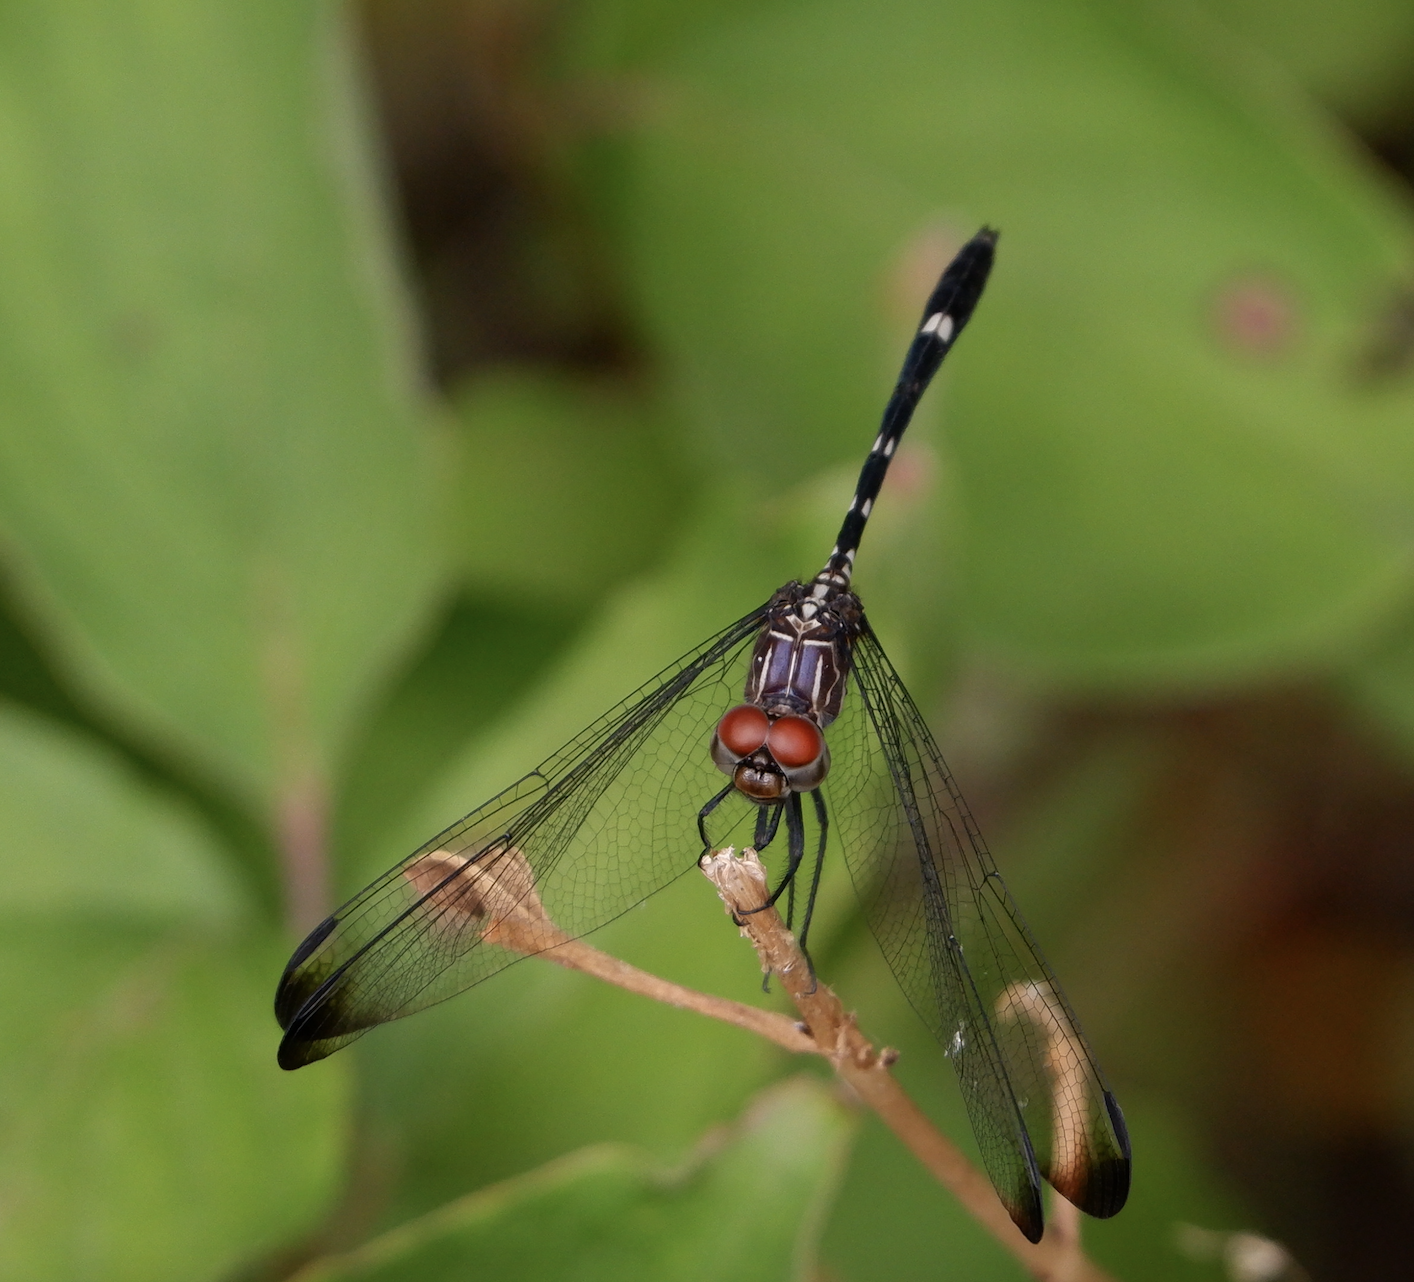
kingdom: Animalia
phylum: Arthropoda
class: Insecta
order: Odonata
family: Libellulidae
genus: Dythemis
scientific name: Dythemis velox
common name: Swift setwing
